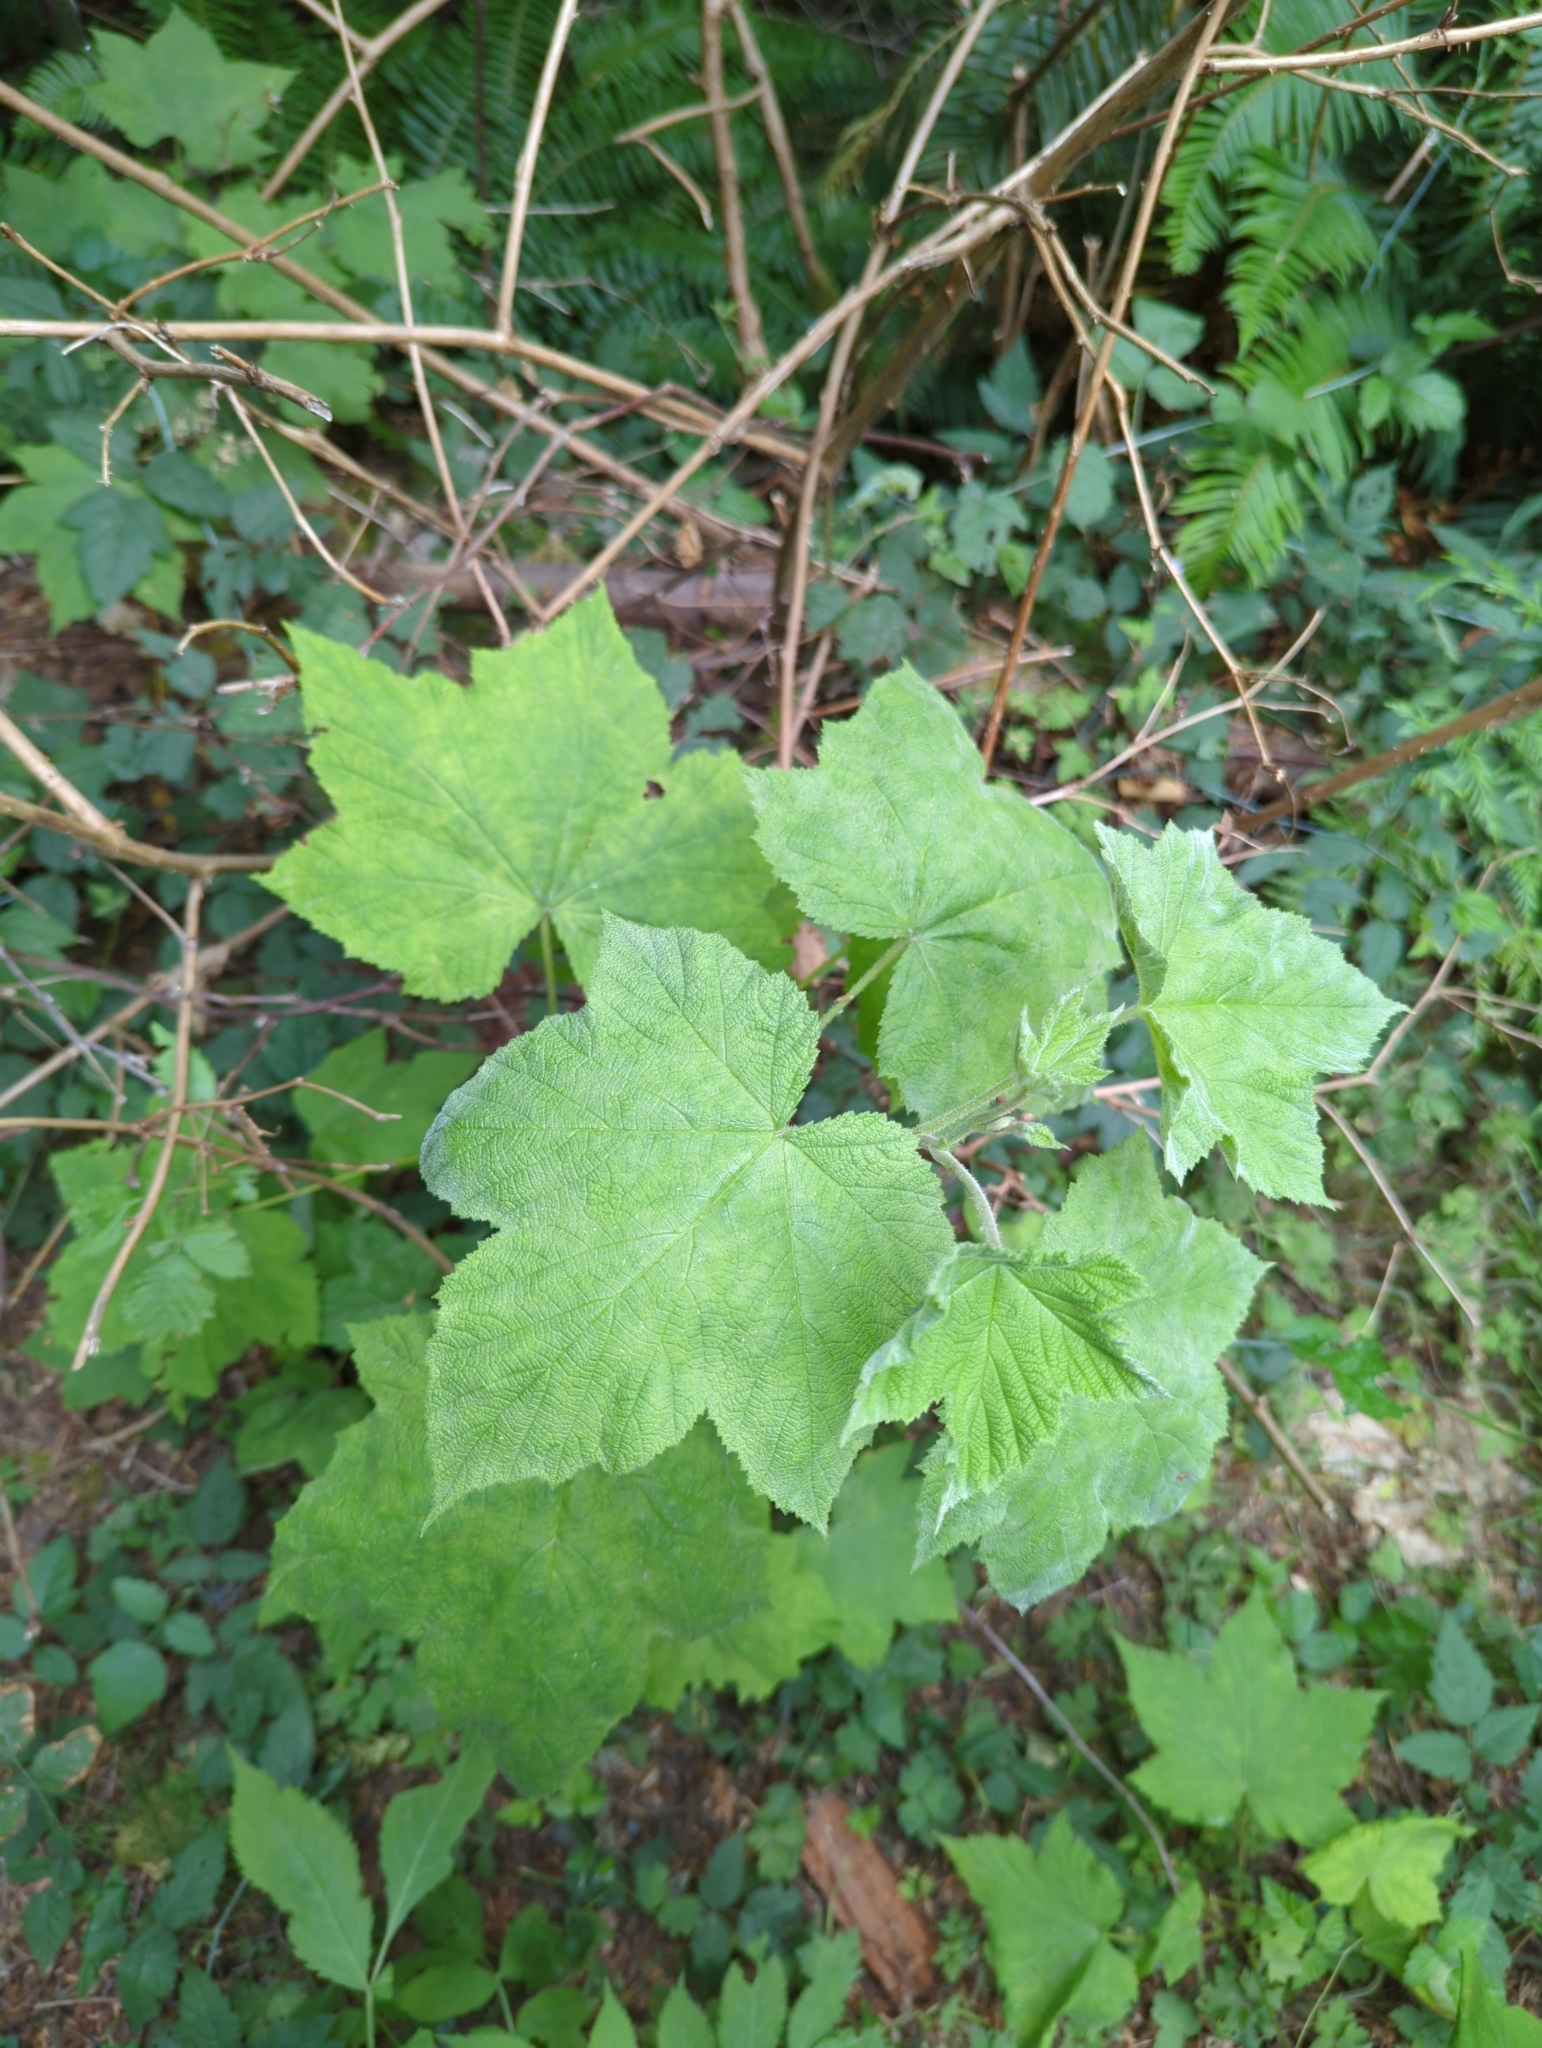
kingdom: Plantae
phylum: Tracheophyta
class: Magnoliopsida
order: Rosales
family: Rosaceae
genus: Rubus
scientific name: Rubus parviflorus
